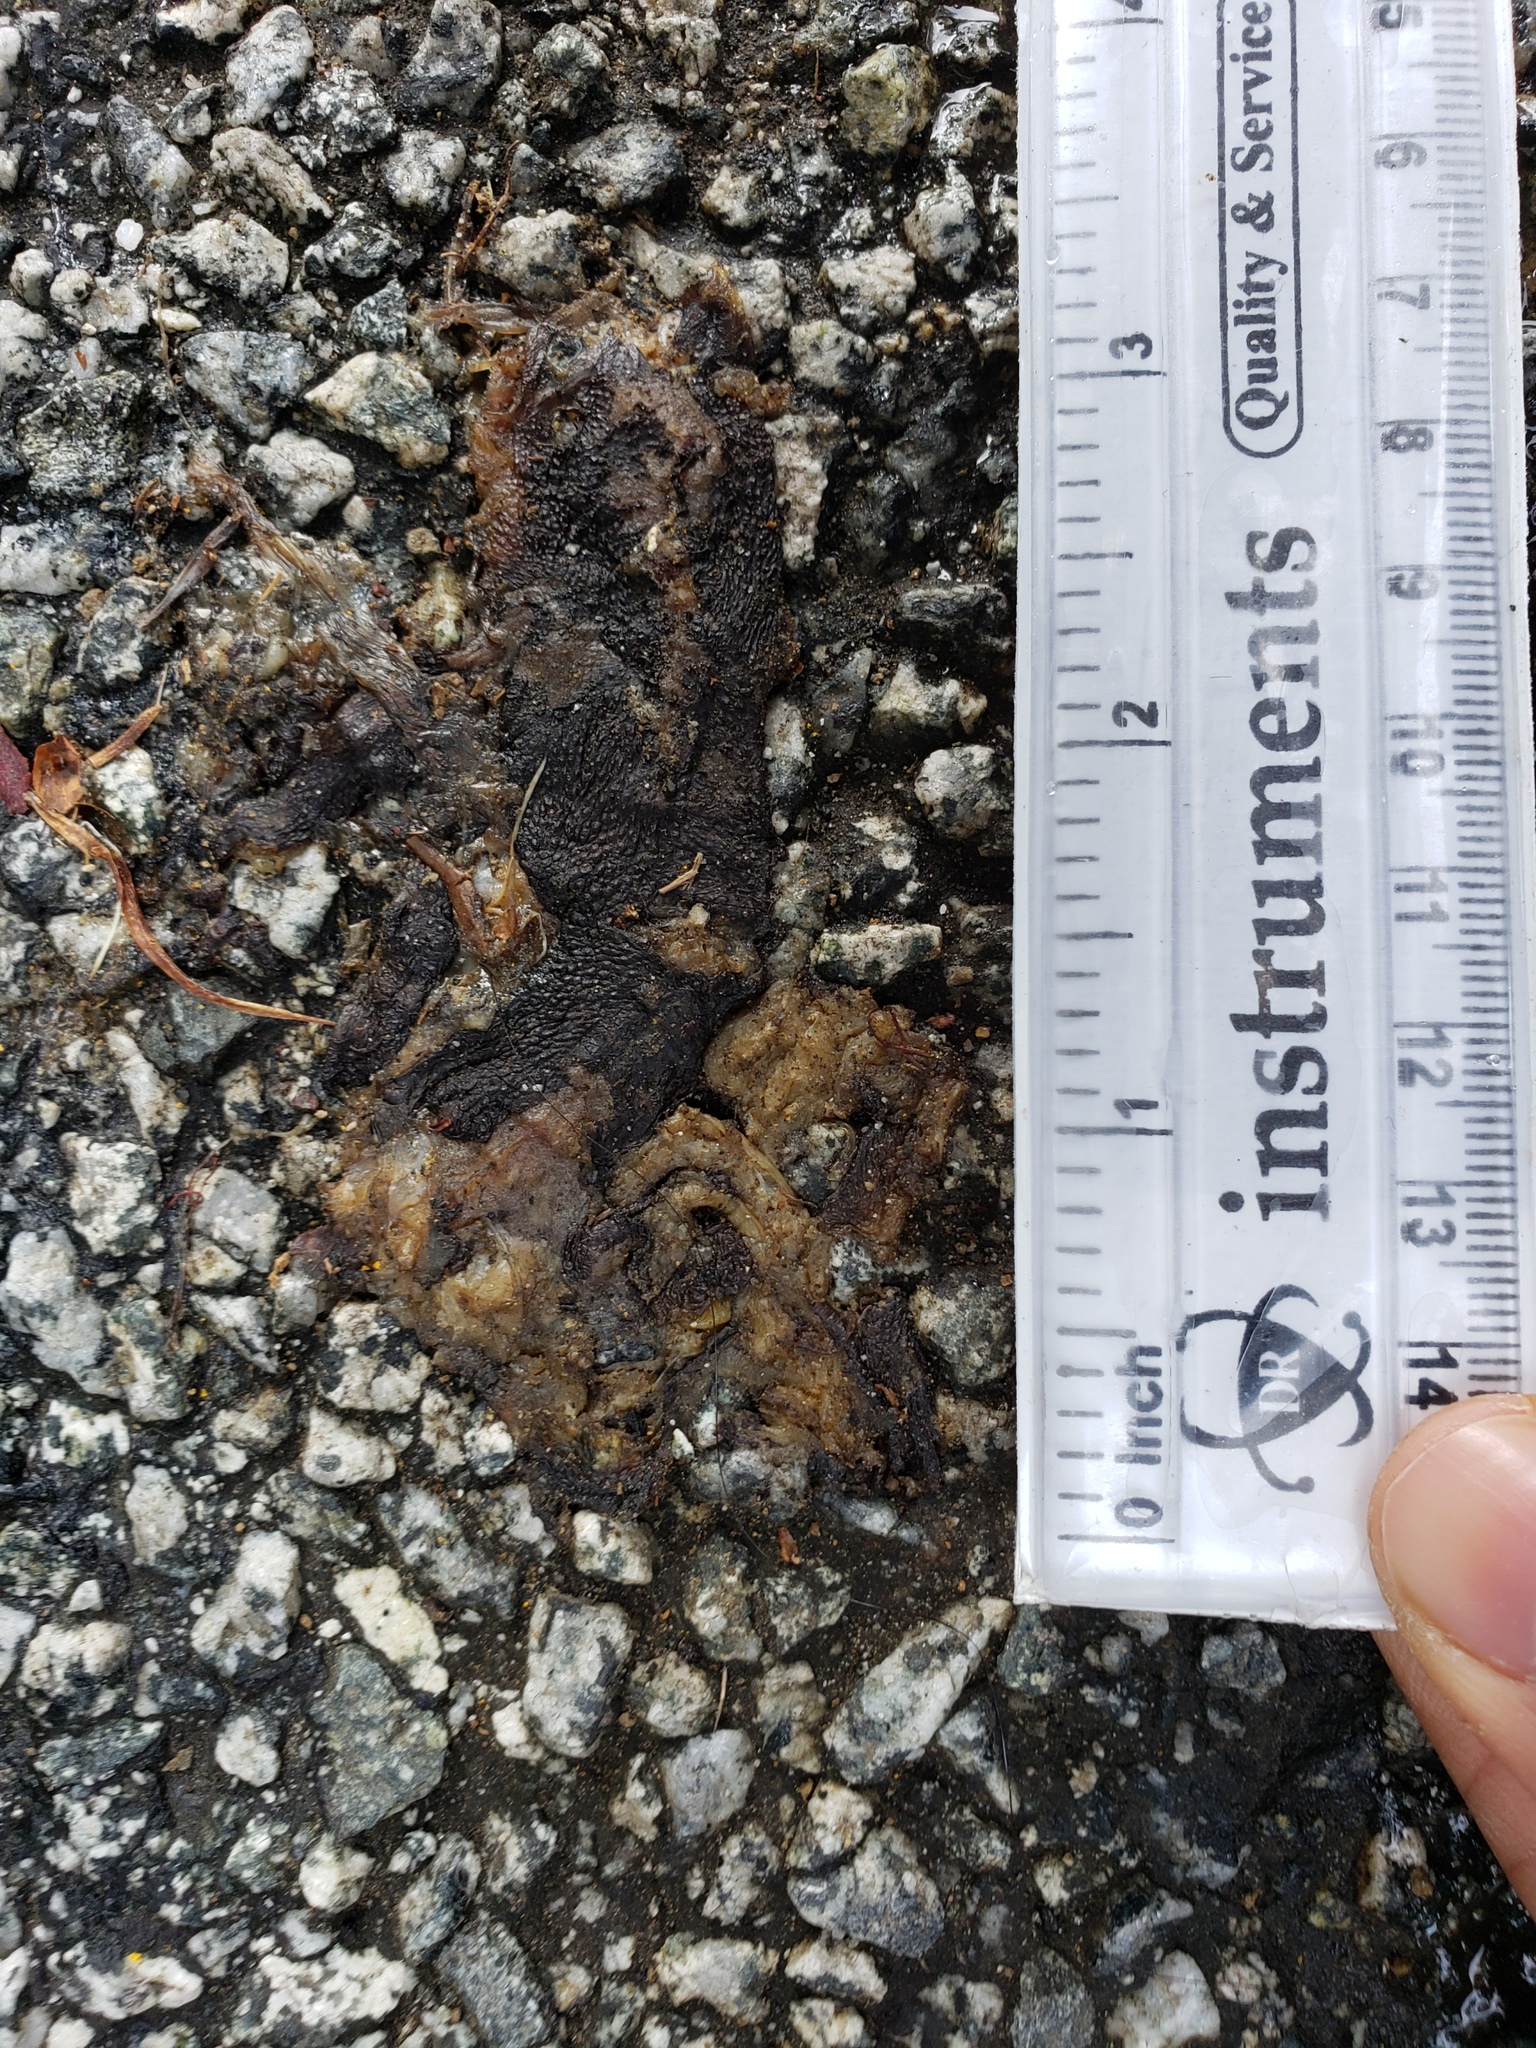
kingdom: Animalia
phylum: Chordata
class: Amphibia
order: Caudata
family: Salamandridae
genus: Taricha
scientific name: Taricha
